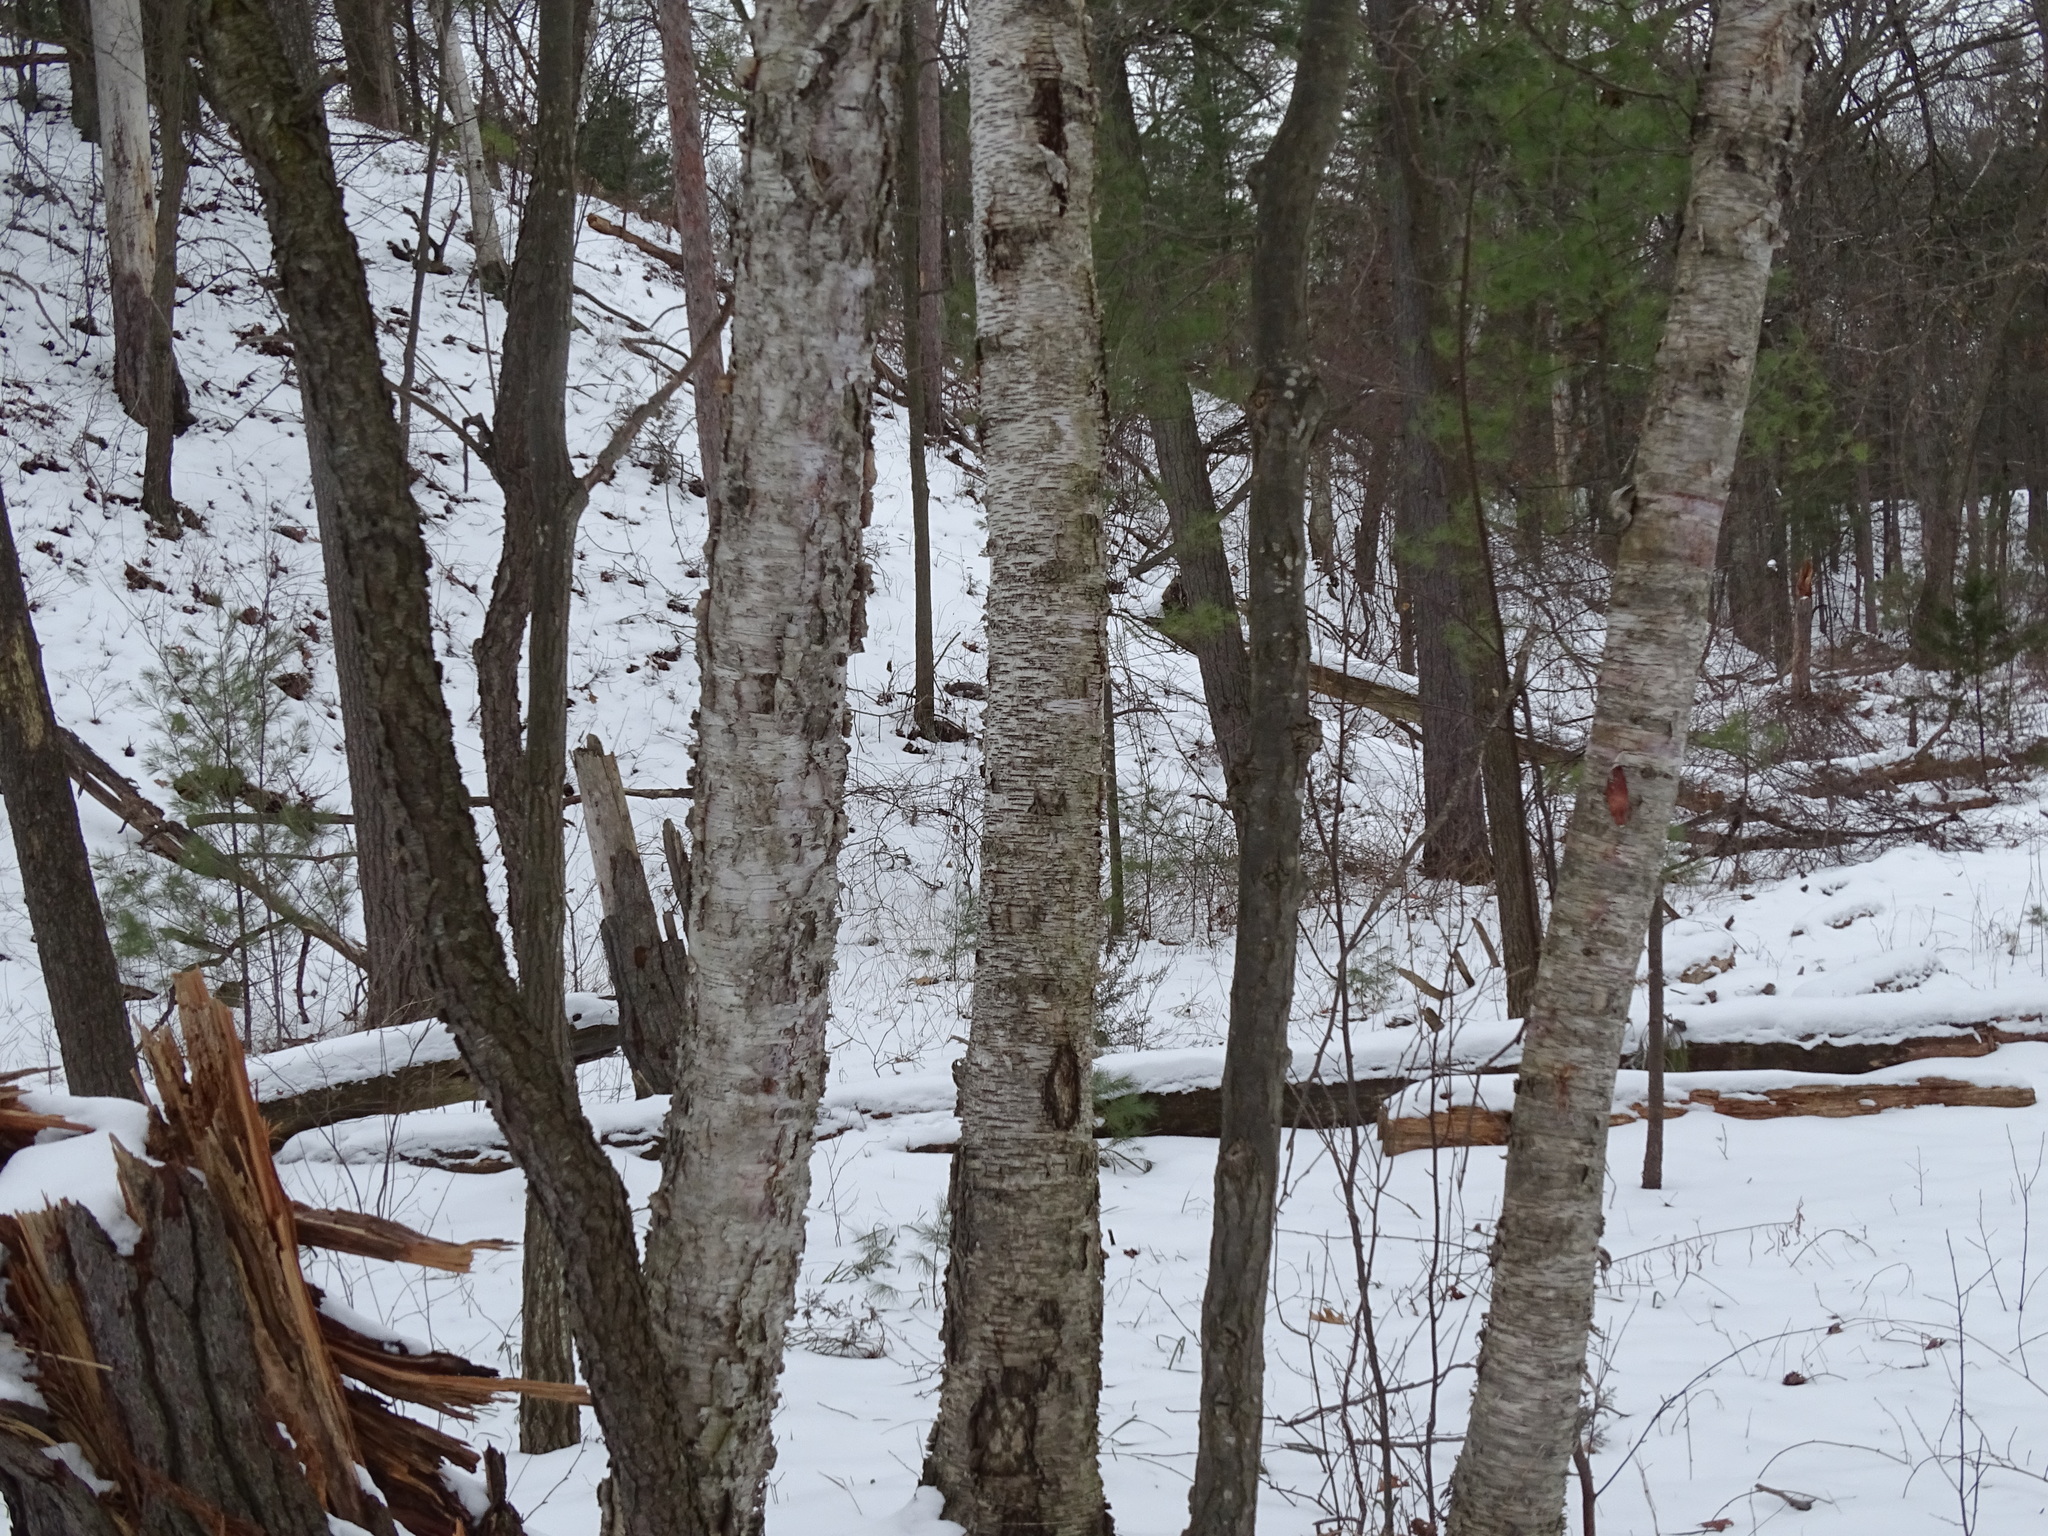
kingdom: Plantae
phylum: Tracheophyta
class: Magnoliopsida
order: Fagales
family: Betulaceae
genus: Betula
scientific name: Betula papyrifera
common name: Paper birch
